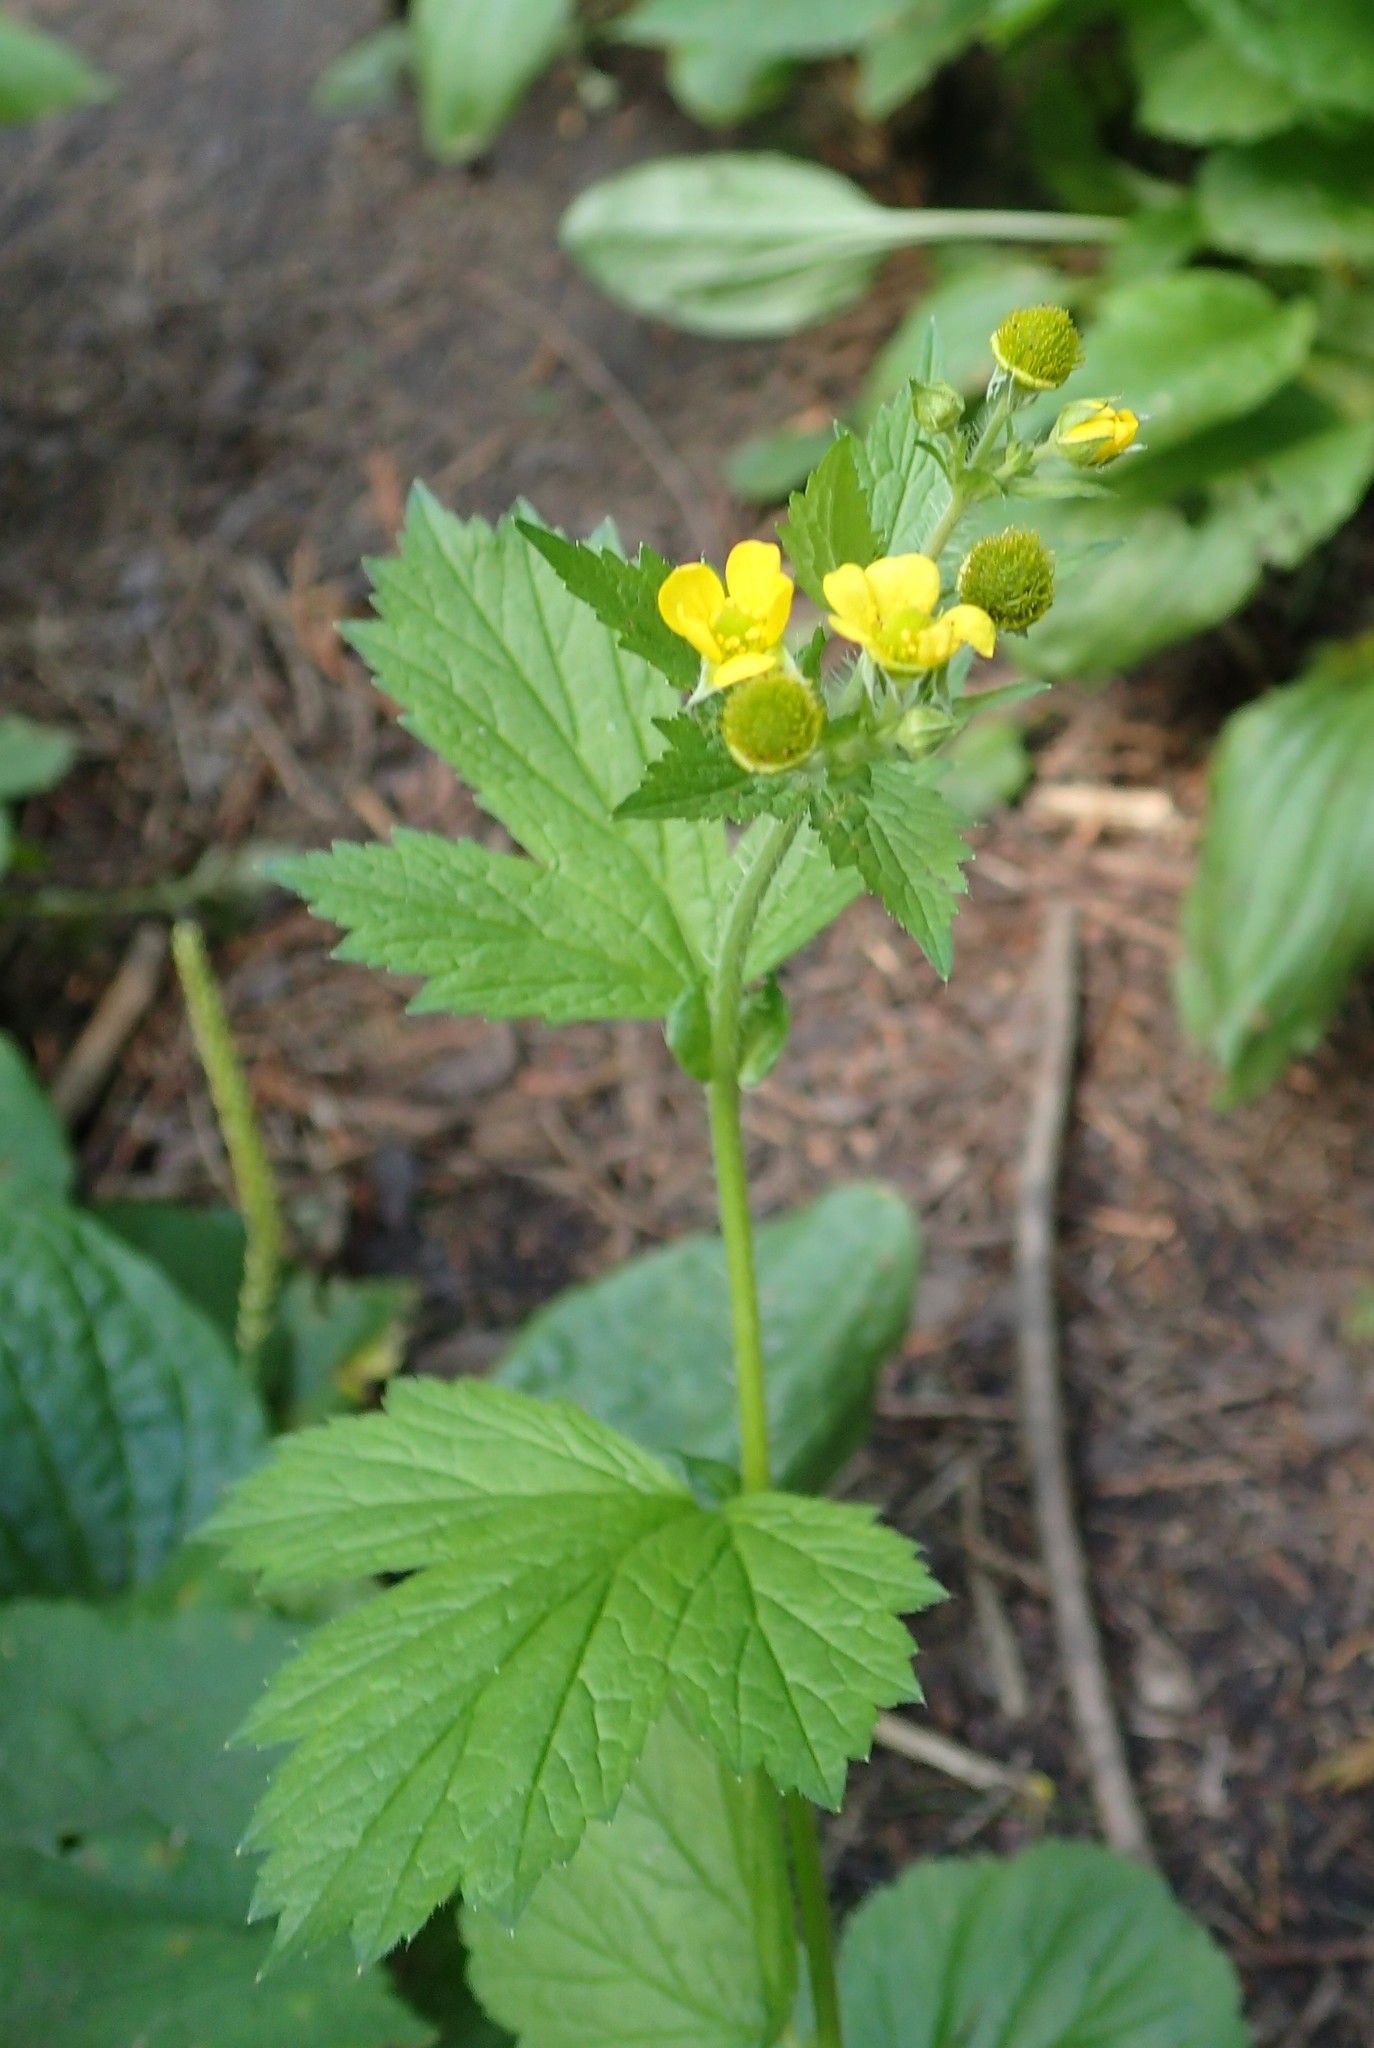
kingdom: Plantae
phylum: Tracheophyta
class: Magnoliopsida
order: Rosales
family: Rosaceae
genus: Geum
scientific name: Geum macrophyllum
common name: Large-leaved avens
